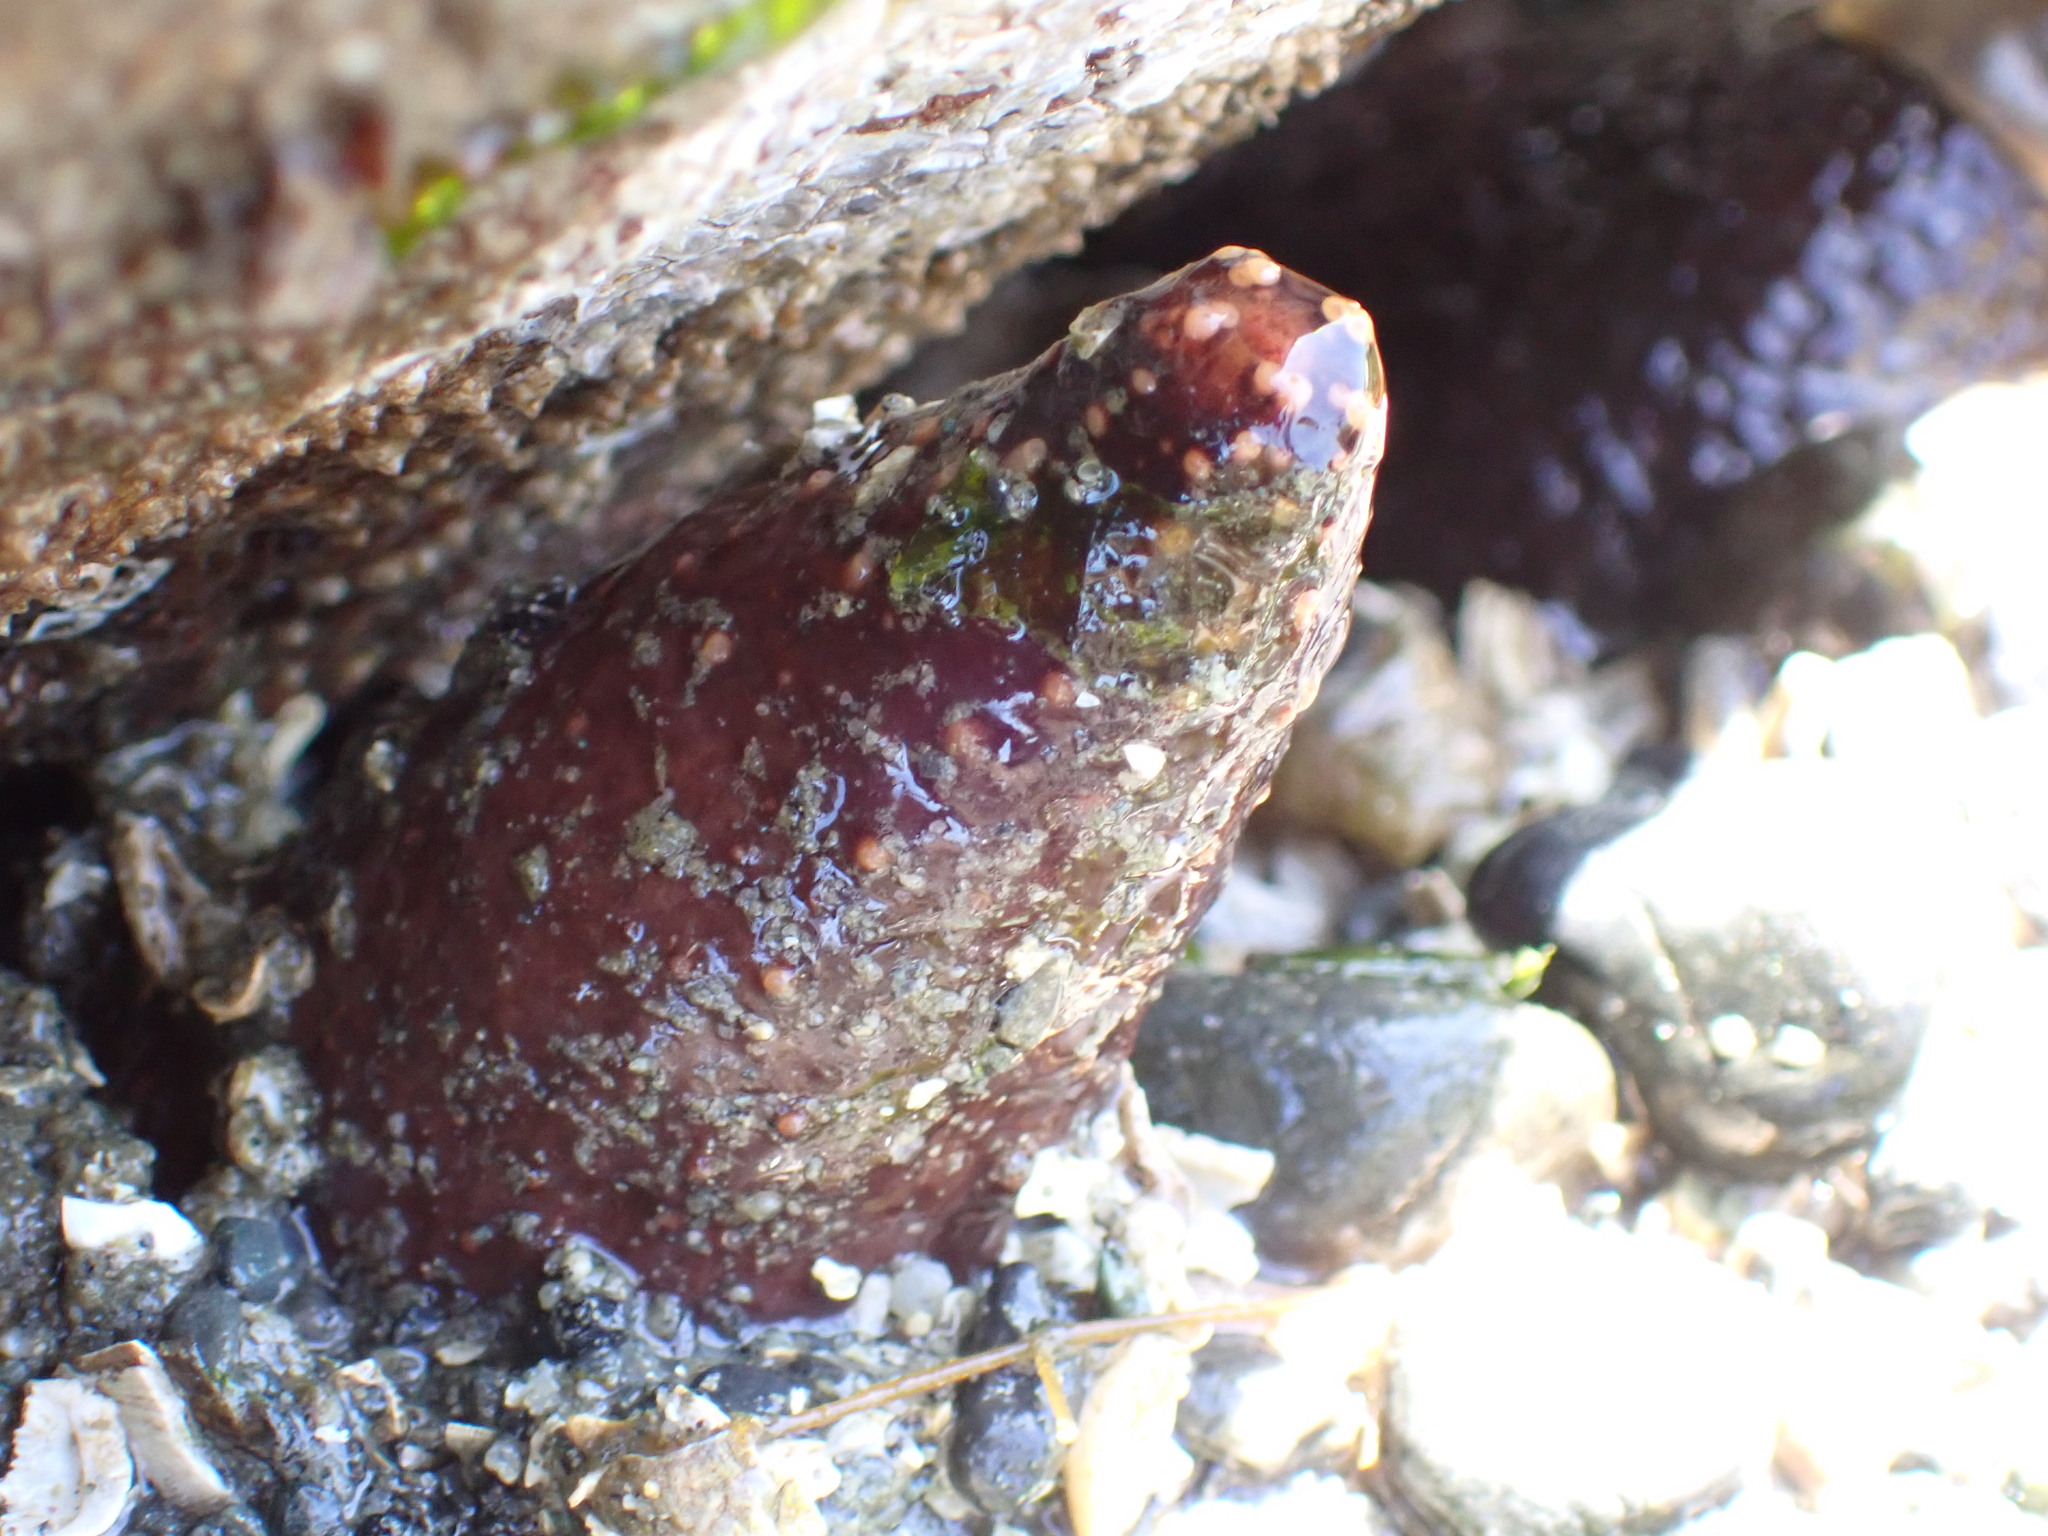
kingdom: Animalia
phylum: Echinodermata
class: Holothuroidea
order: Dendrochirotida
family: Cucumariidae
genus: Cucumaria
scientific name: Cucumaria miniata
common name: Orange sea cucumber
